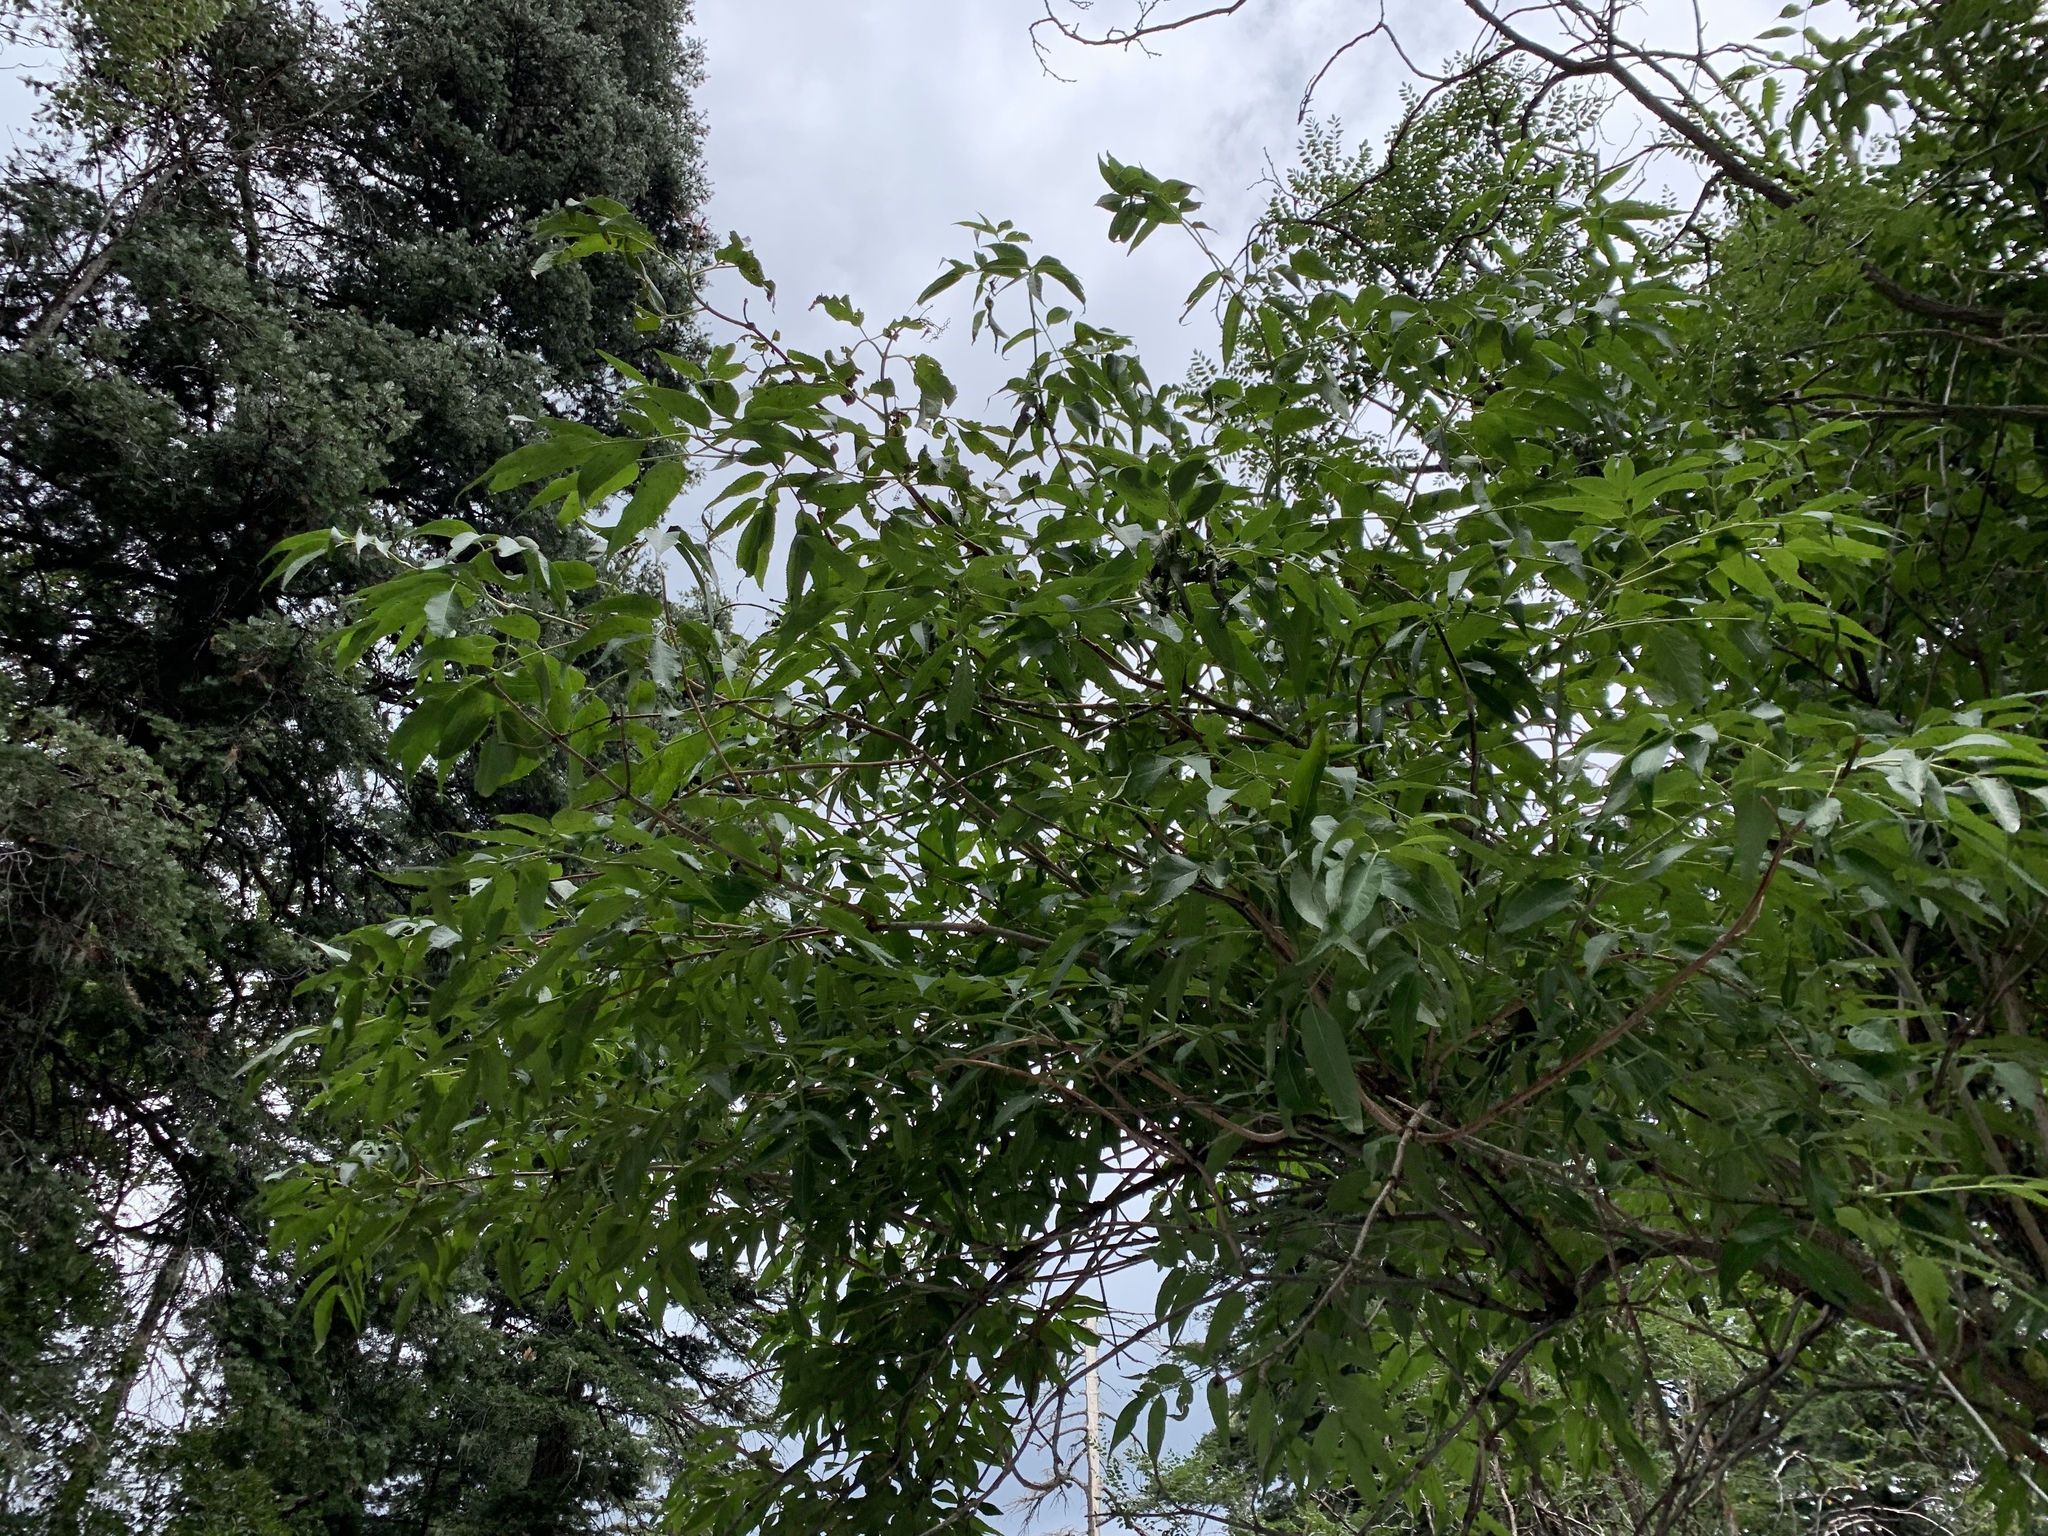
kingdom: Plantae
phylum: Tracheophyta
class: Magnoliopsida
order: Dipsacales
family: Viburnaceae
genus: Sambucus
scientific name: Sambucus cerulea
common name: Blue elder
